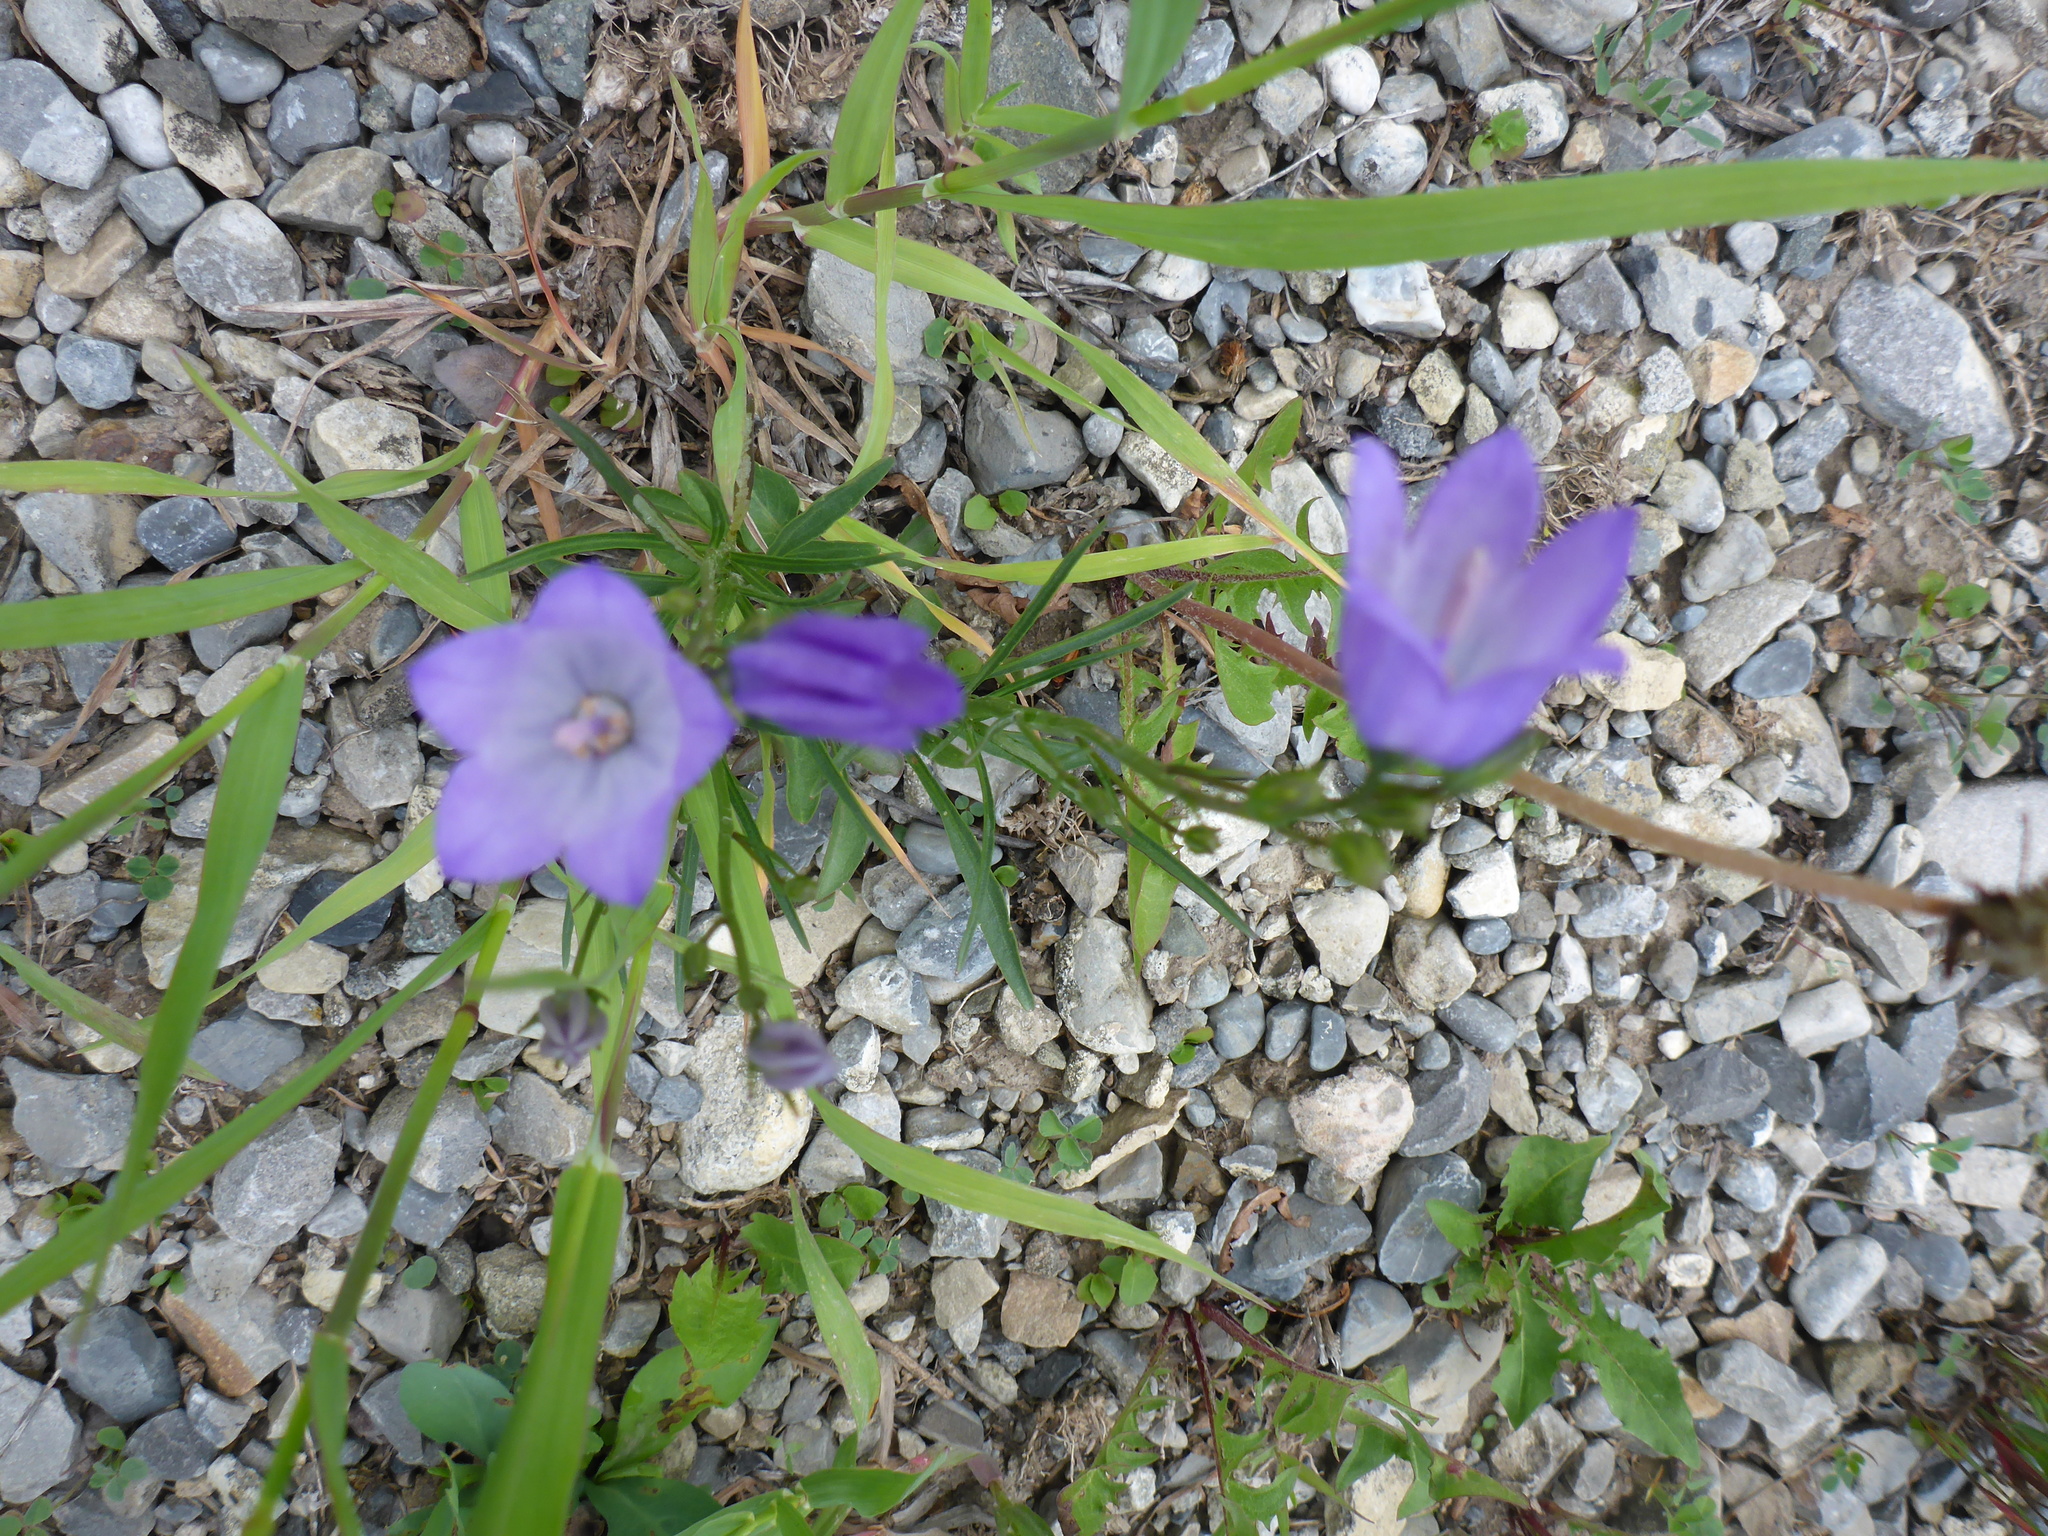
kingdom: Plantae
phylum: Tracheophyta
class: Magnoliopsida
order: Asterales
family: Campanulaceae
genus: Campanula
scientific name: Campanula alaskana
